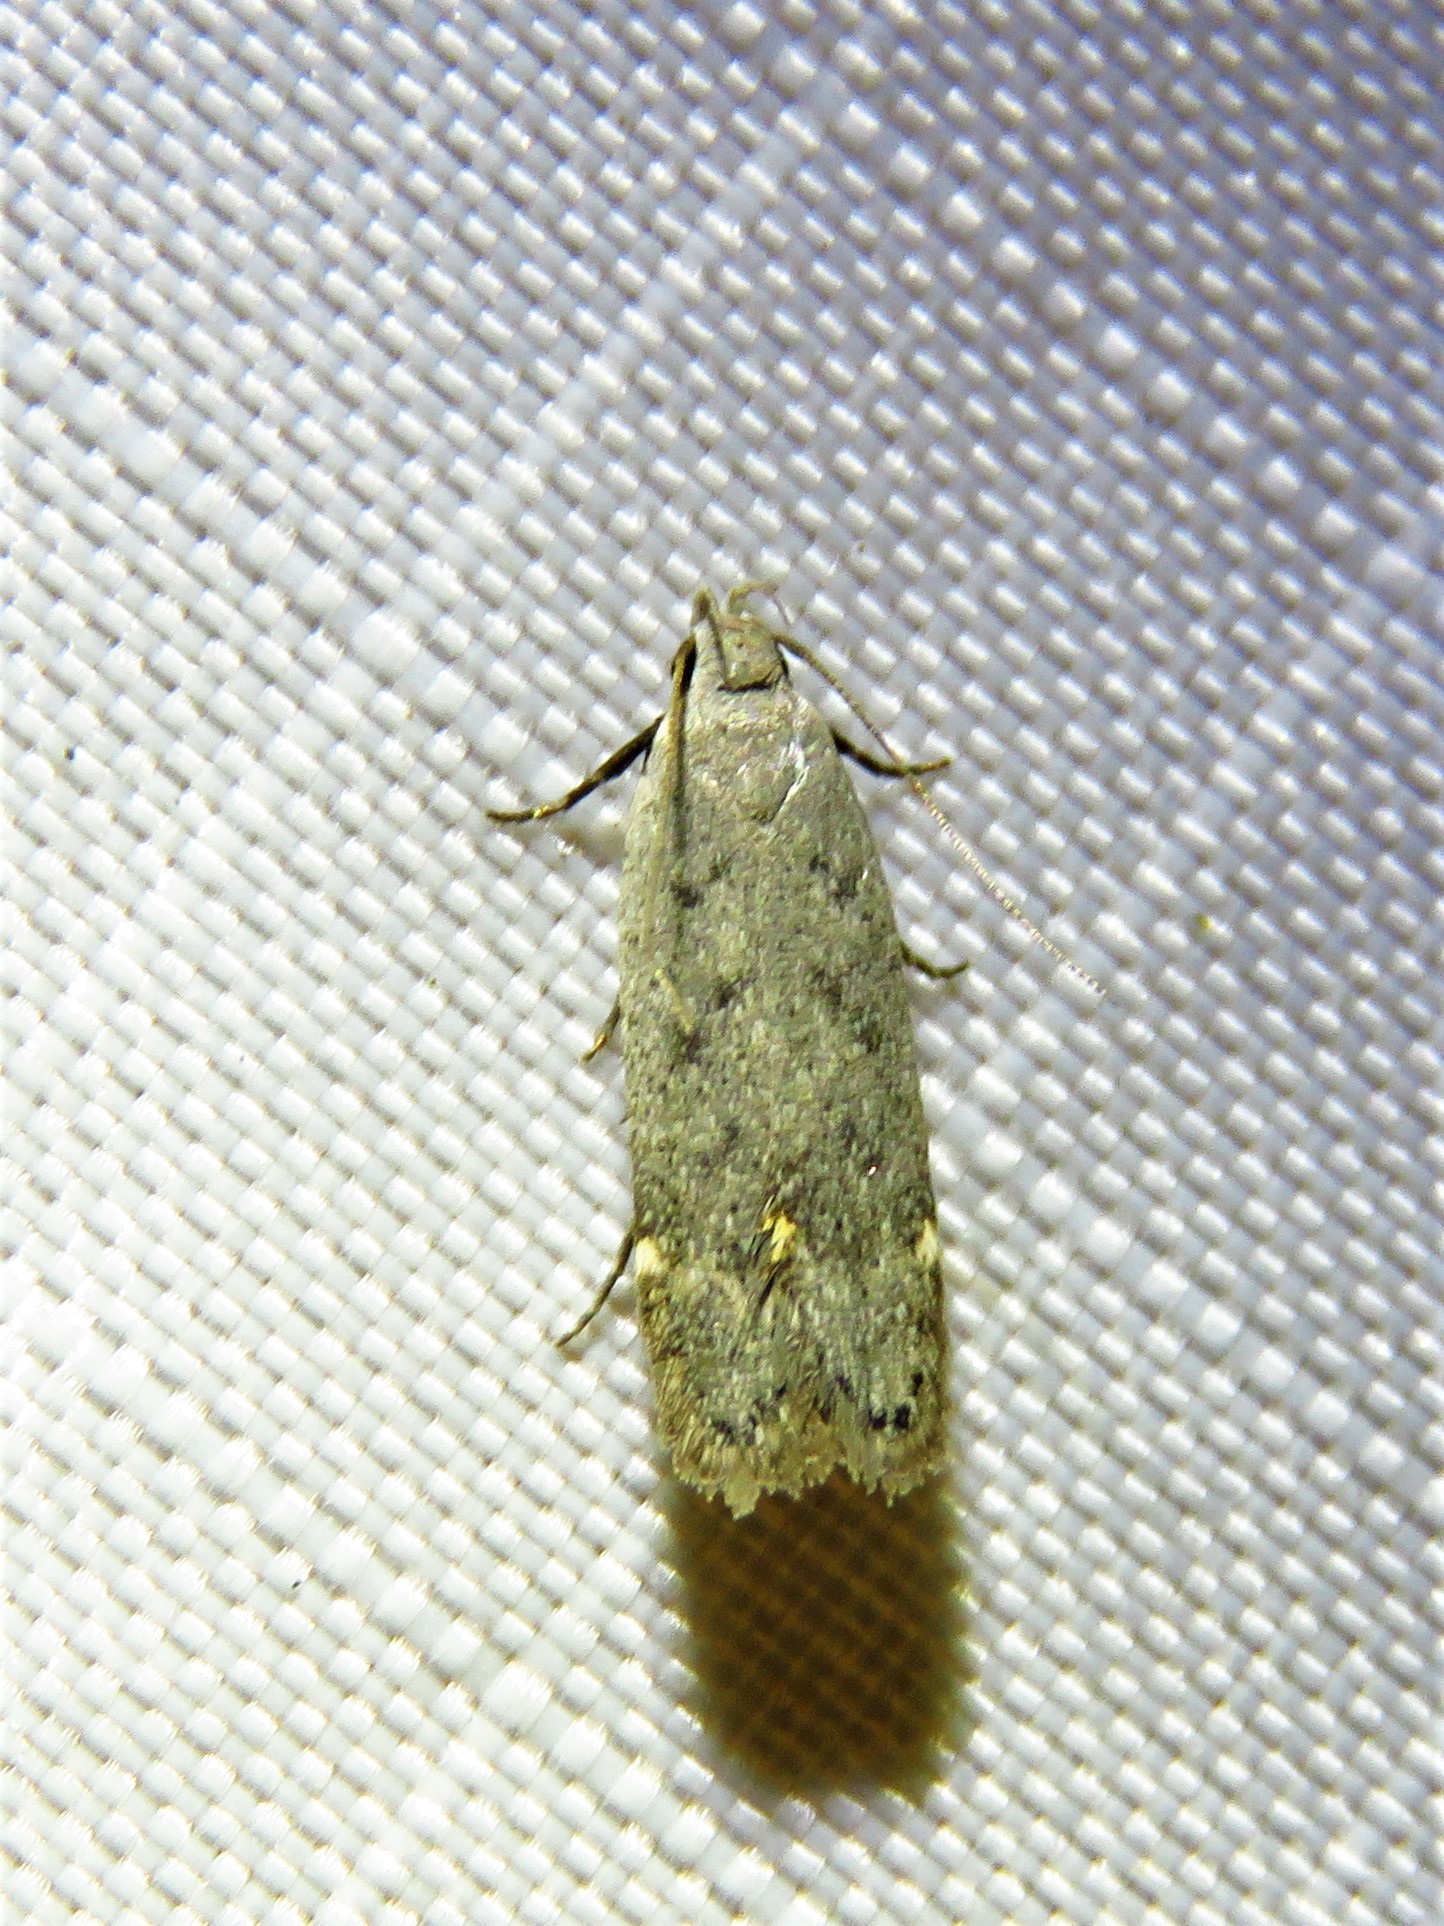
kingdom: Animalia
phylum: Arthropoda
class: Insecta
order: Lepidoptera
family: Gelechiidae
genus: Anacampsis
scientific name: Anacampsis comparanda
